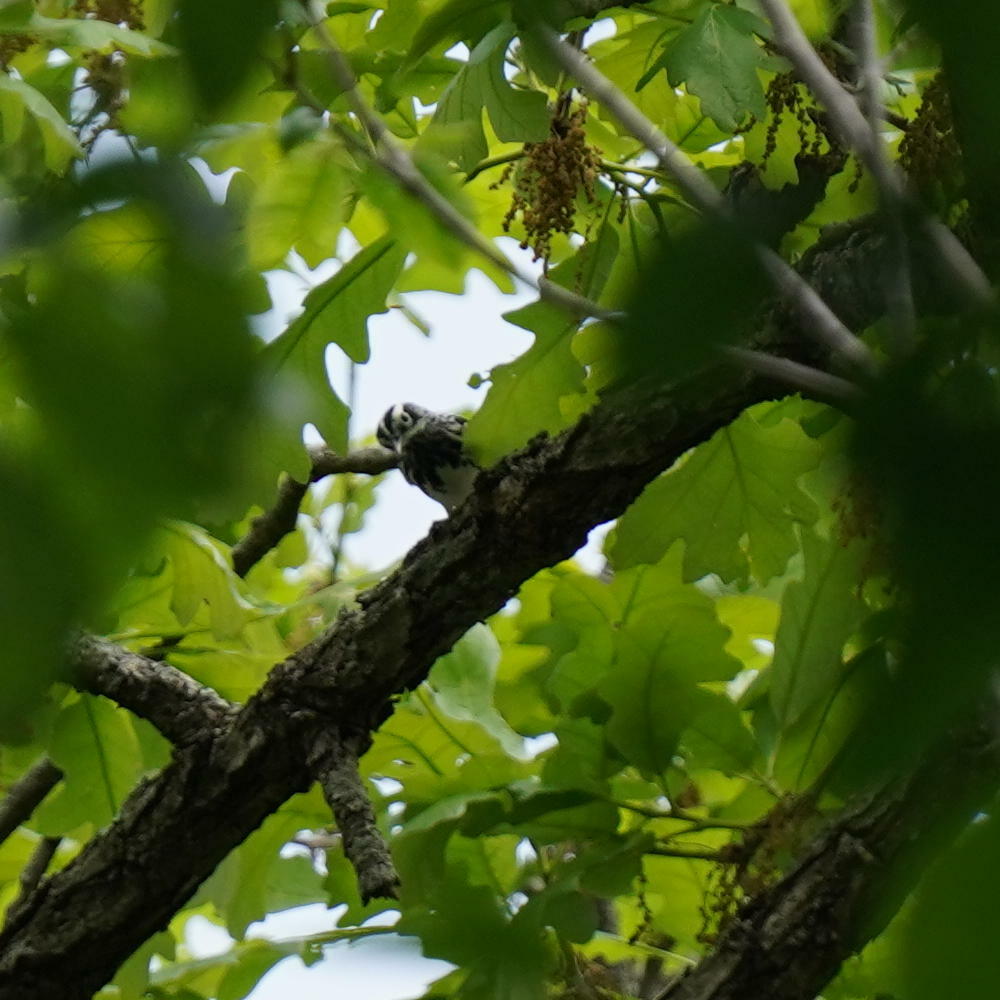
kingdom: Animalia
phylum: Chordata
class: Aves
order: Passeriformes
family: Parulidae
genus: Mniotilta
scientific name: Mniotilta varia
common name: Black-and-white warbler
